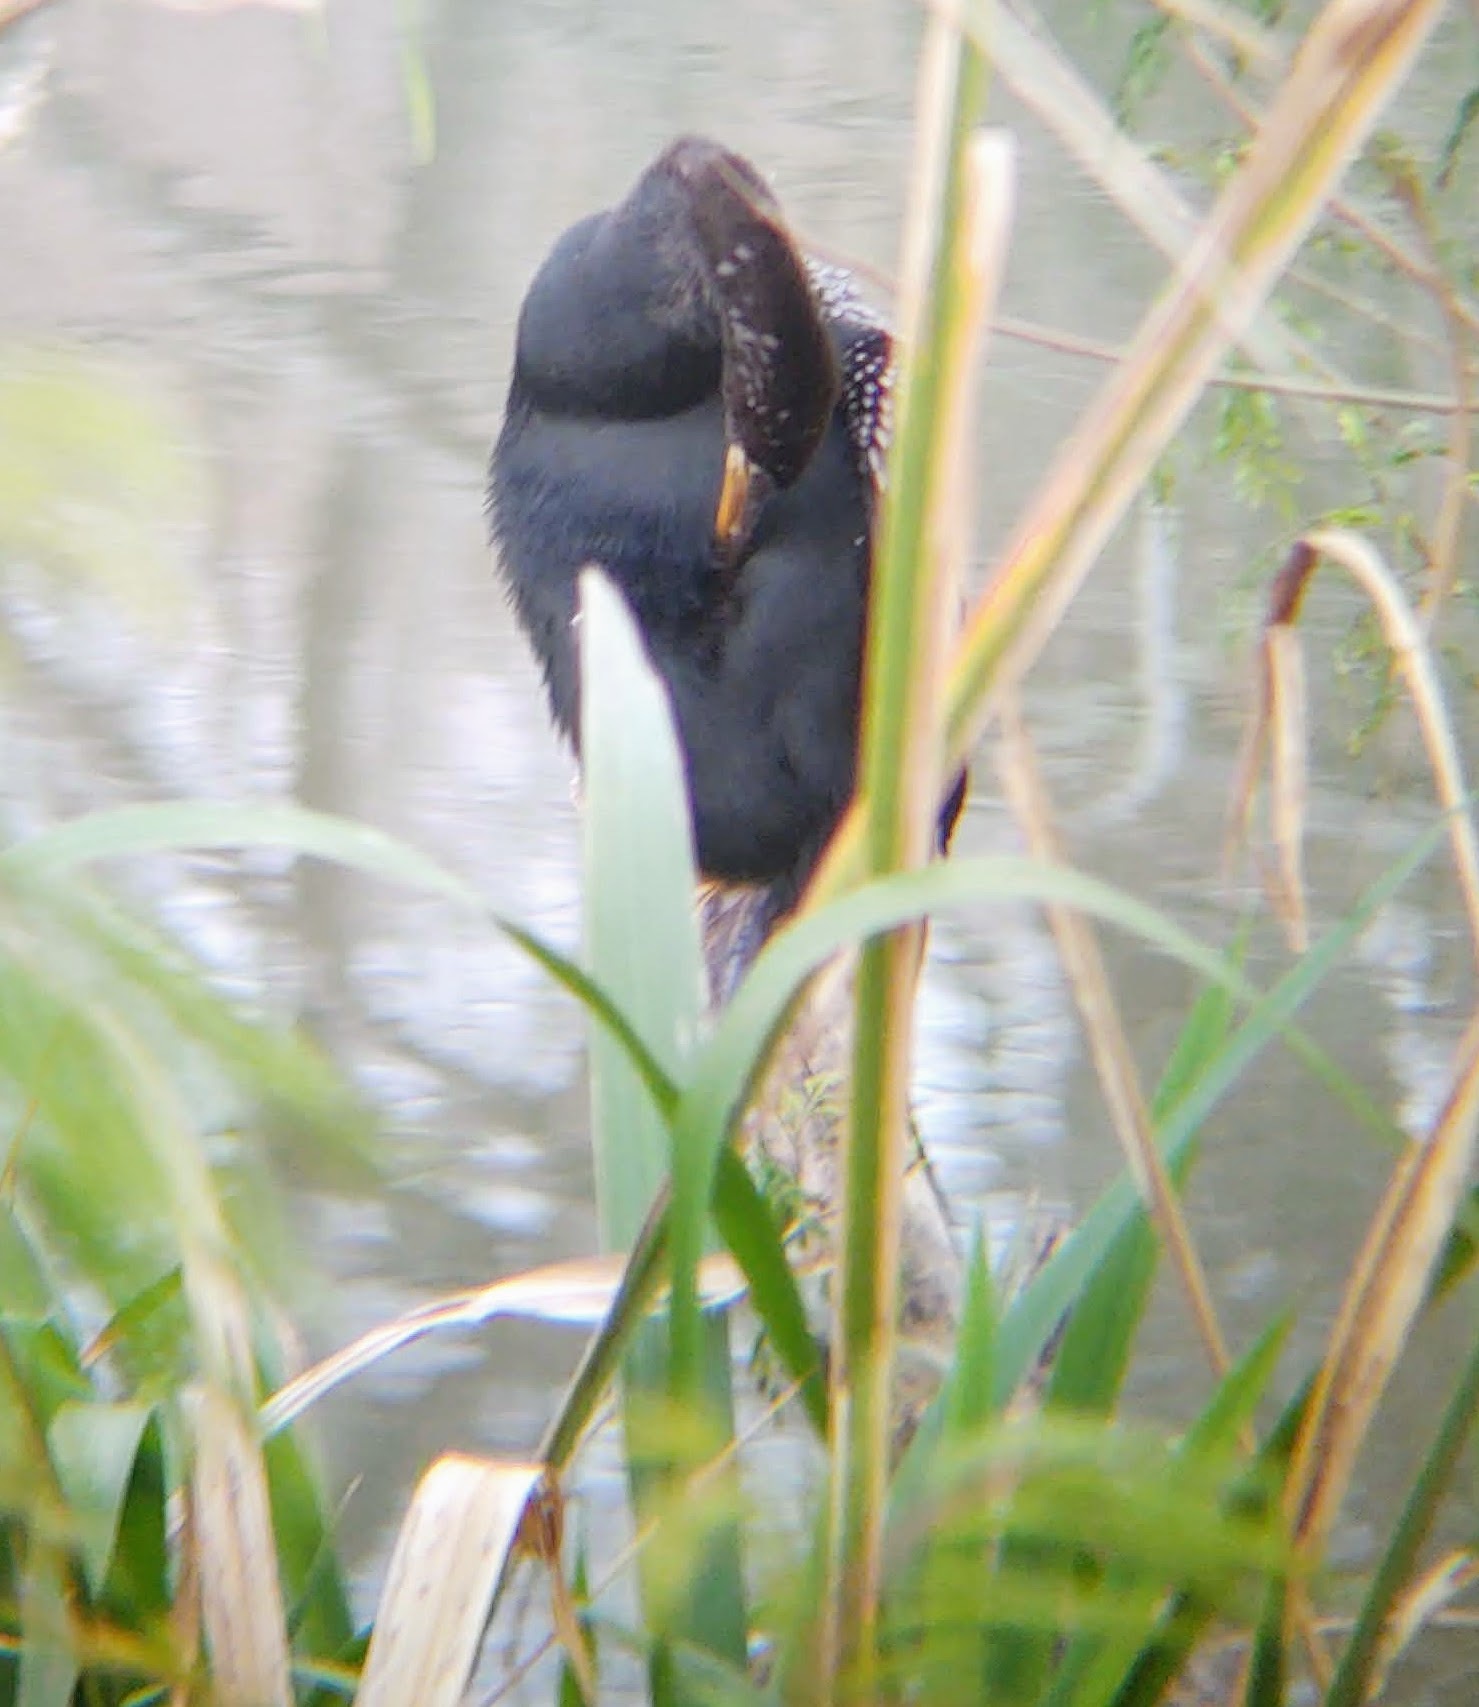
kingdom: Animalia
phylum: Chordata
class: Aves
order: Suliformes
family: Anhingidae
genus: Anhinga
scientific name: Anhinga anhinga
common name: Anhinga
